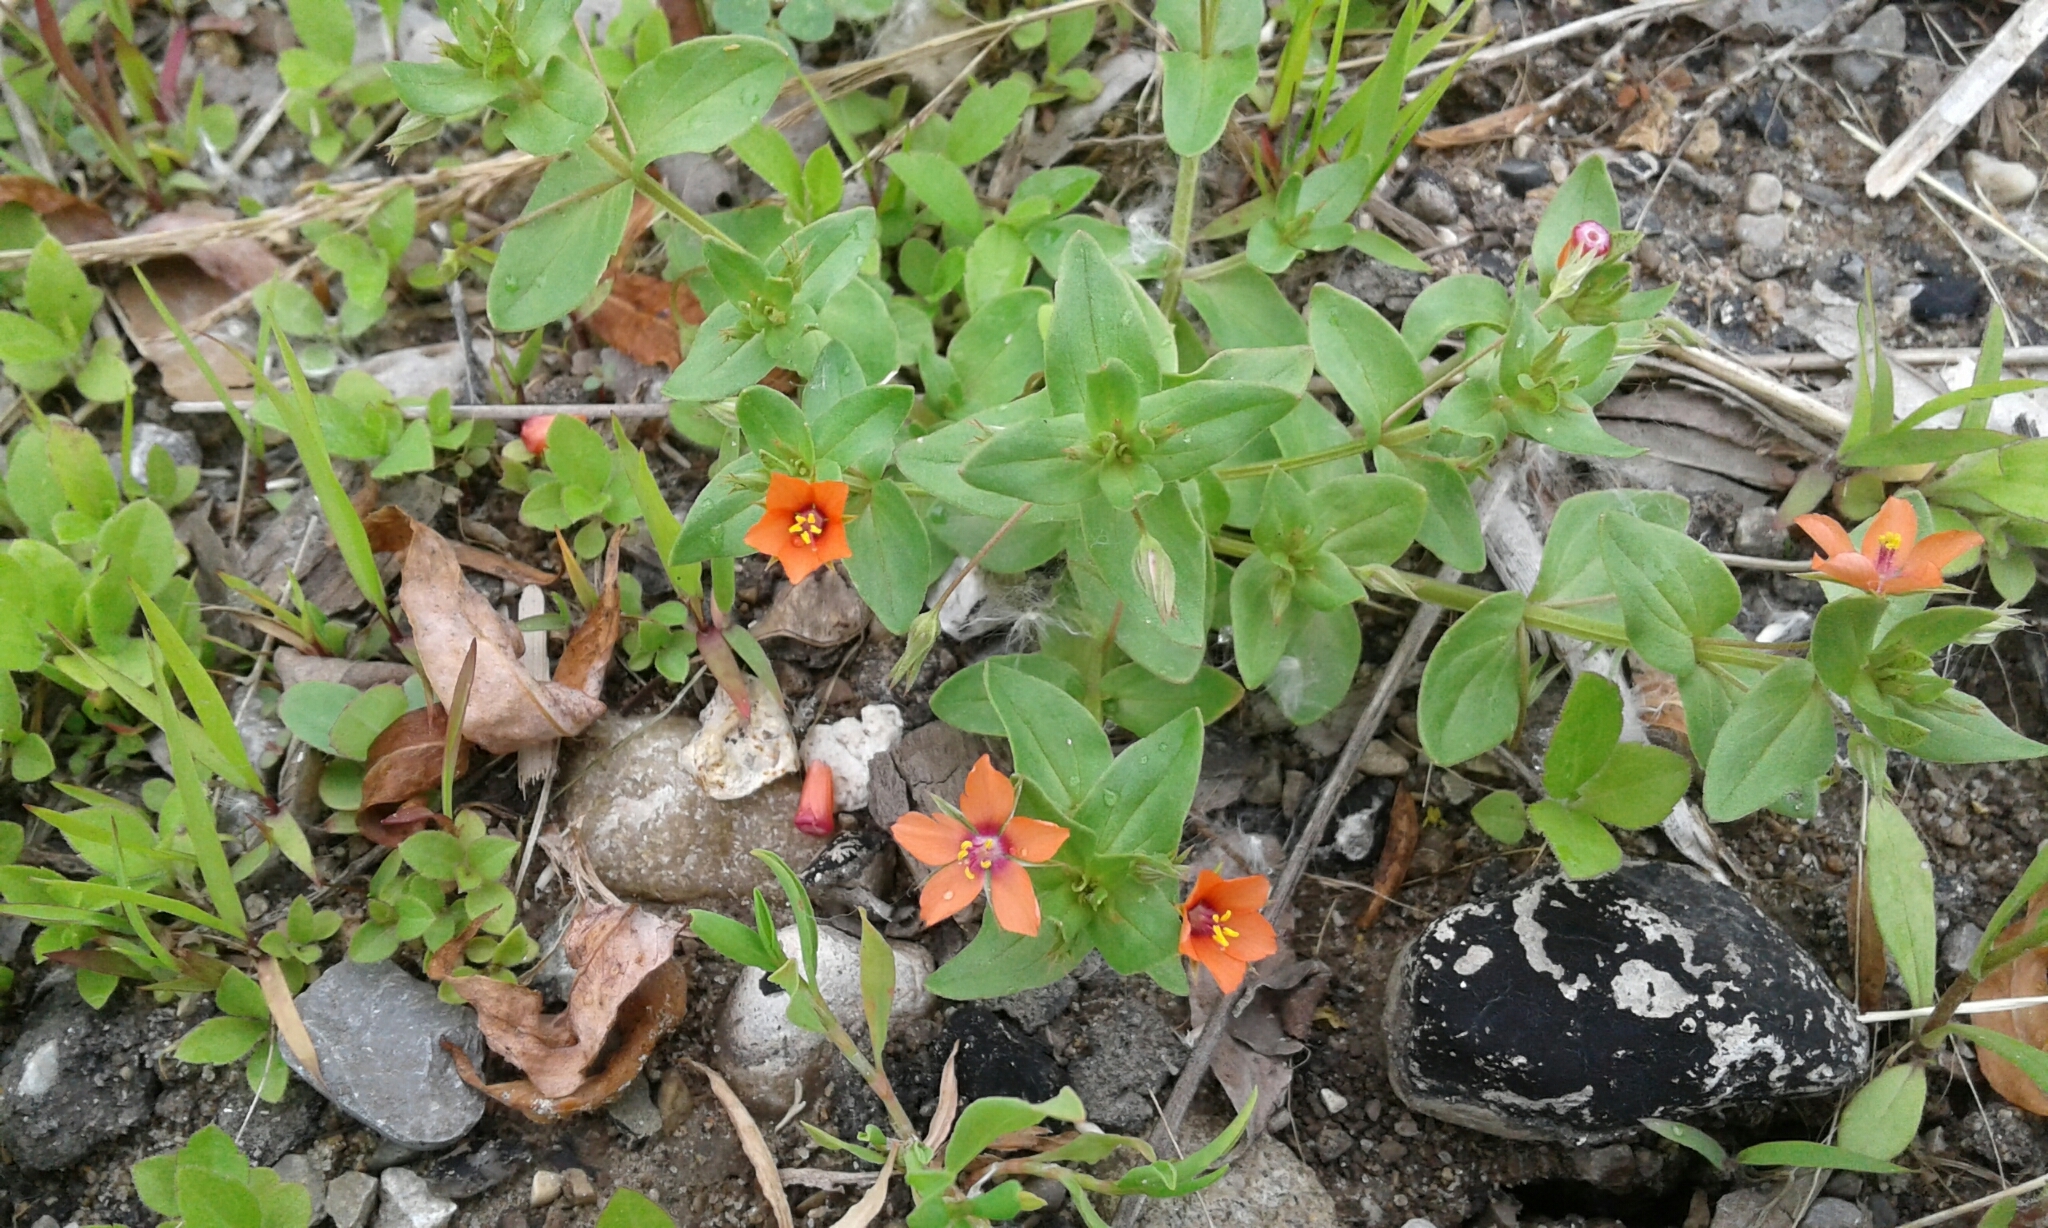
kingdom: Plantae
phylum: Tracheophyta
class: Magnoliopsida
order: Ericales
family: Primulaceae
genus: Lysimachia
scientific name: Lysimachia arvensis
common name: Scarlet pimpernel
